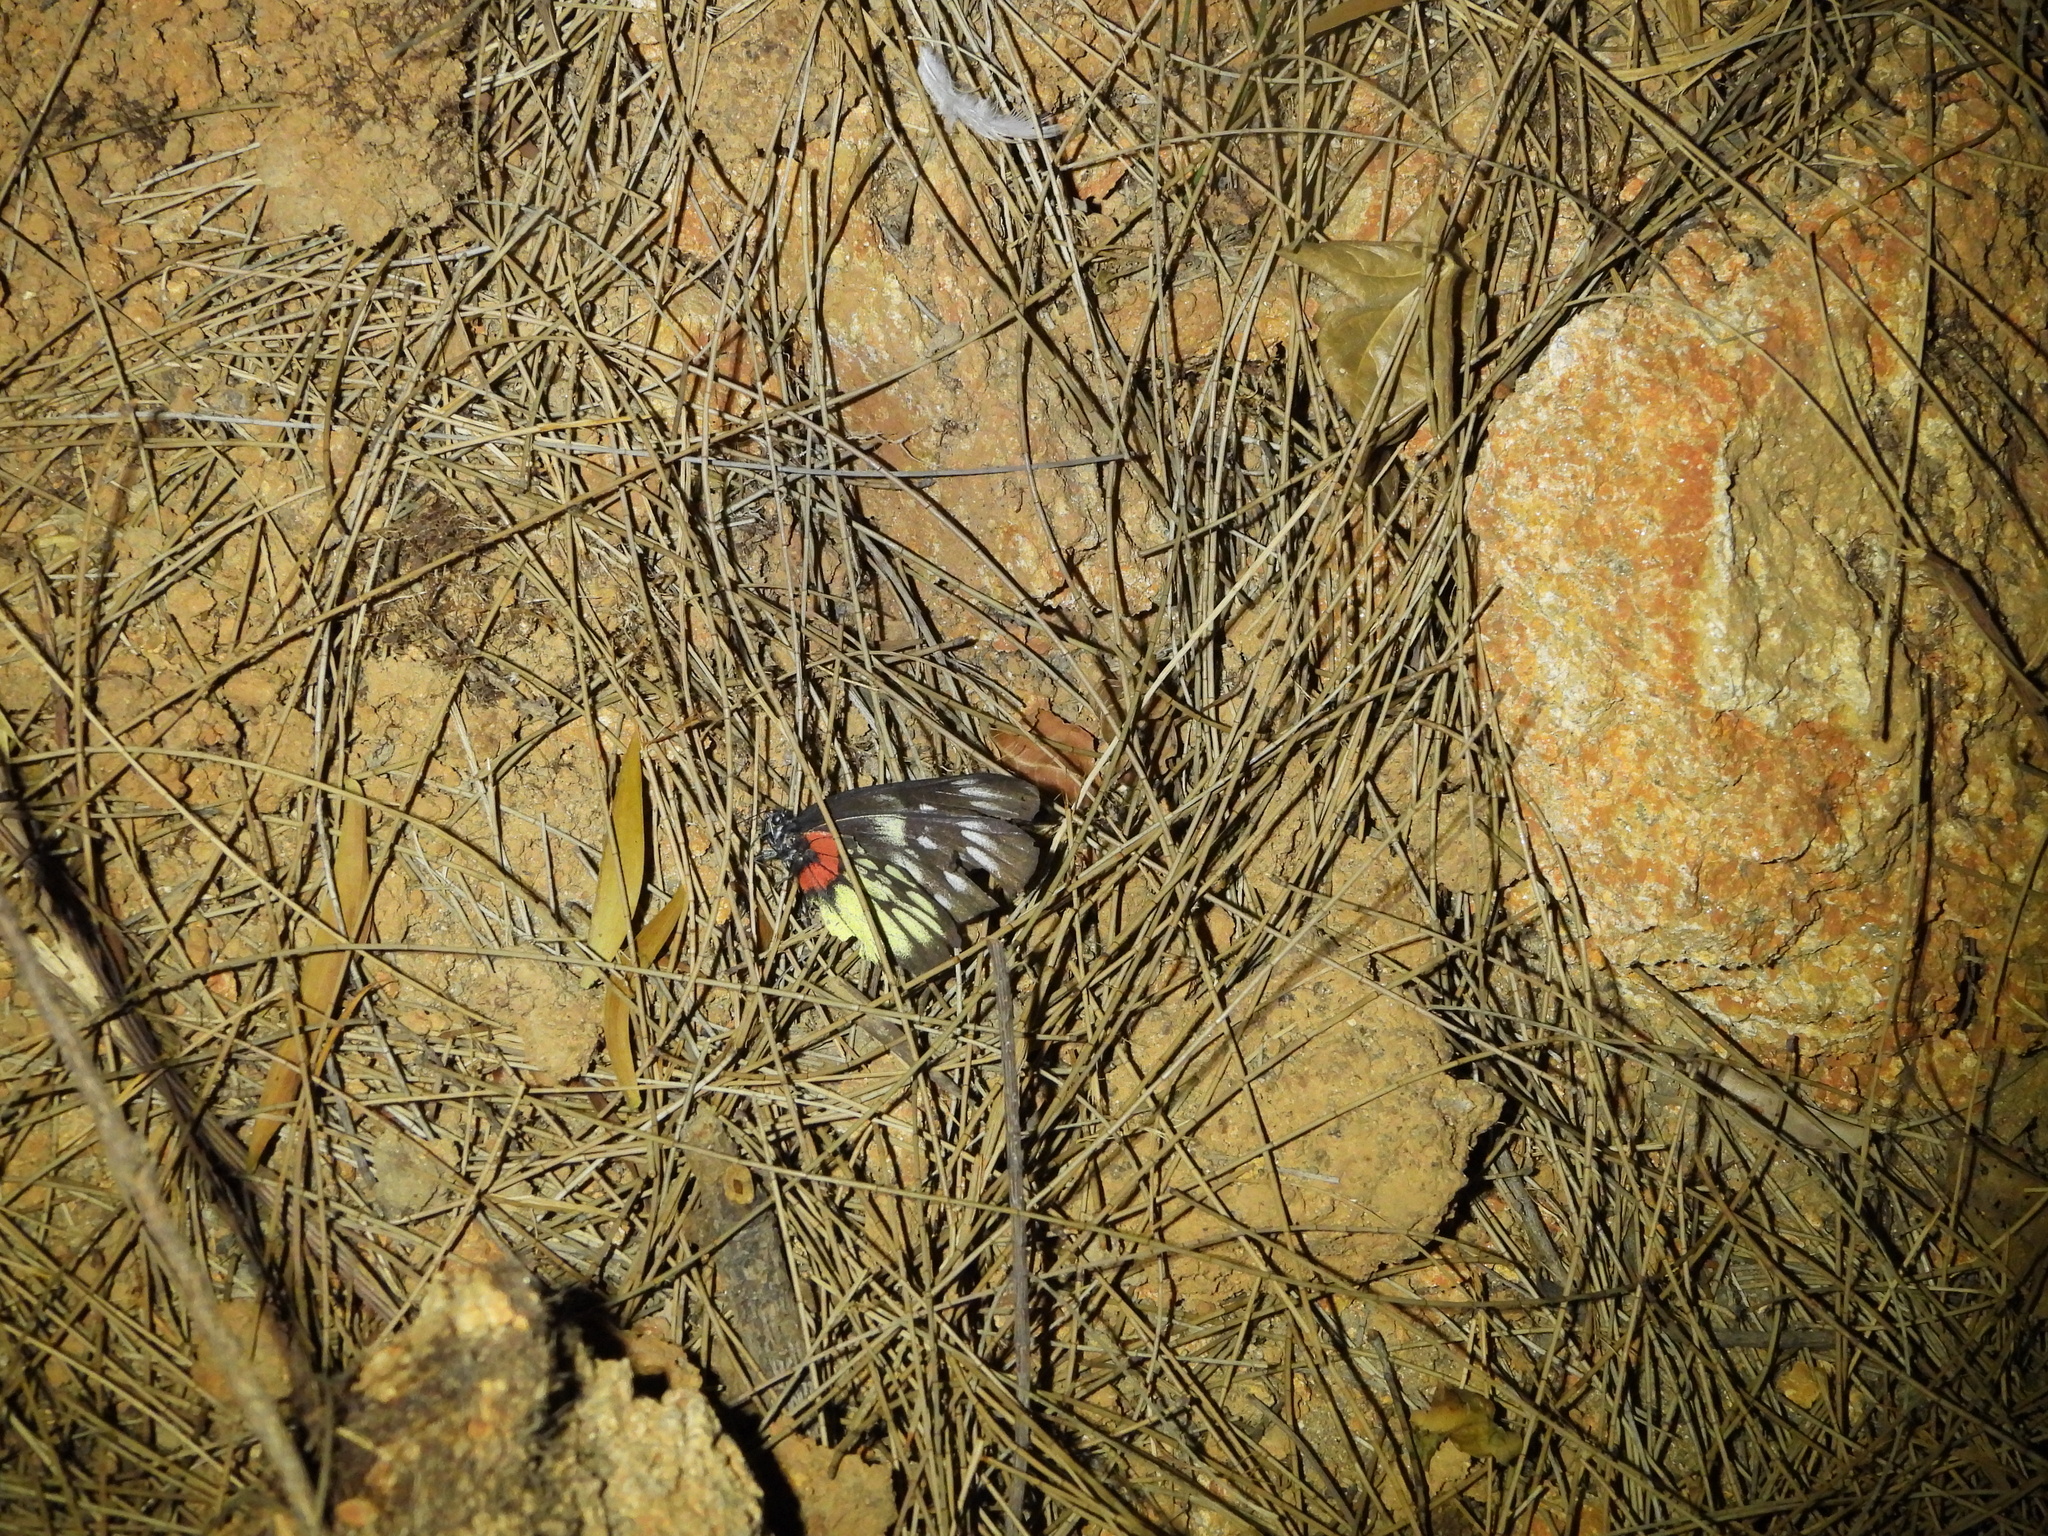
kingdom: Animalia
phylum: Arthropoda
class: Insecta
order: Lepidoptera
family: Pieridae
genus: Delias
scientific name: Delias pasithoe
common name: Red-base jezebel
